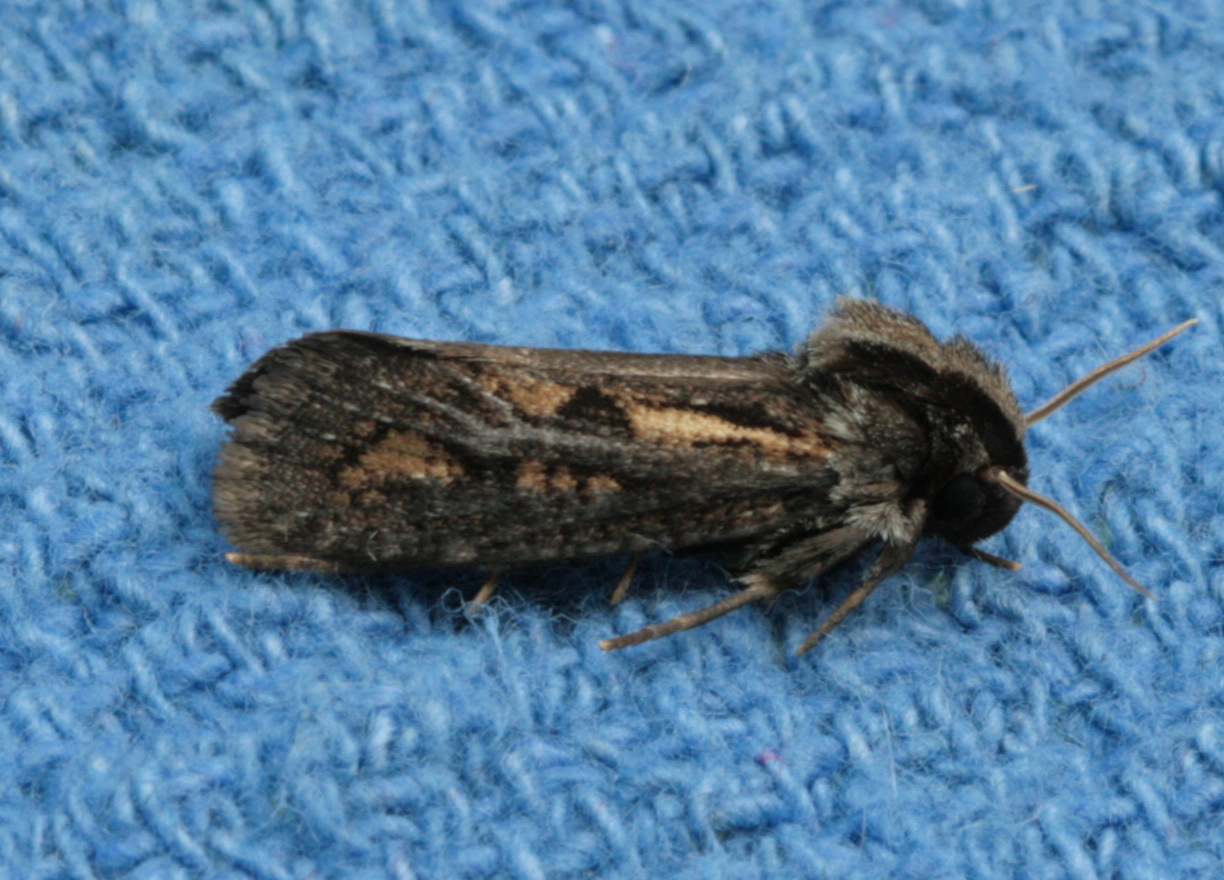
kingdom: Animalia
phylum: Arthropoda
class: Insecta
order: Lepidoptera
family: Tineidae
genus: Acrolophus
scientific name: Acrolophus popeanella
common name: Clemens' grass tubeworm moth
